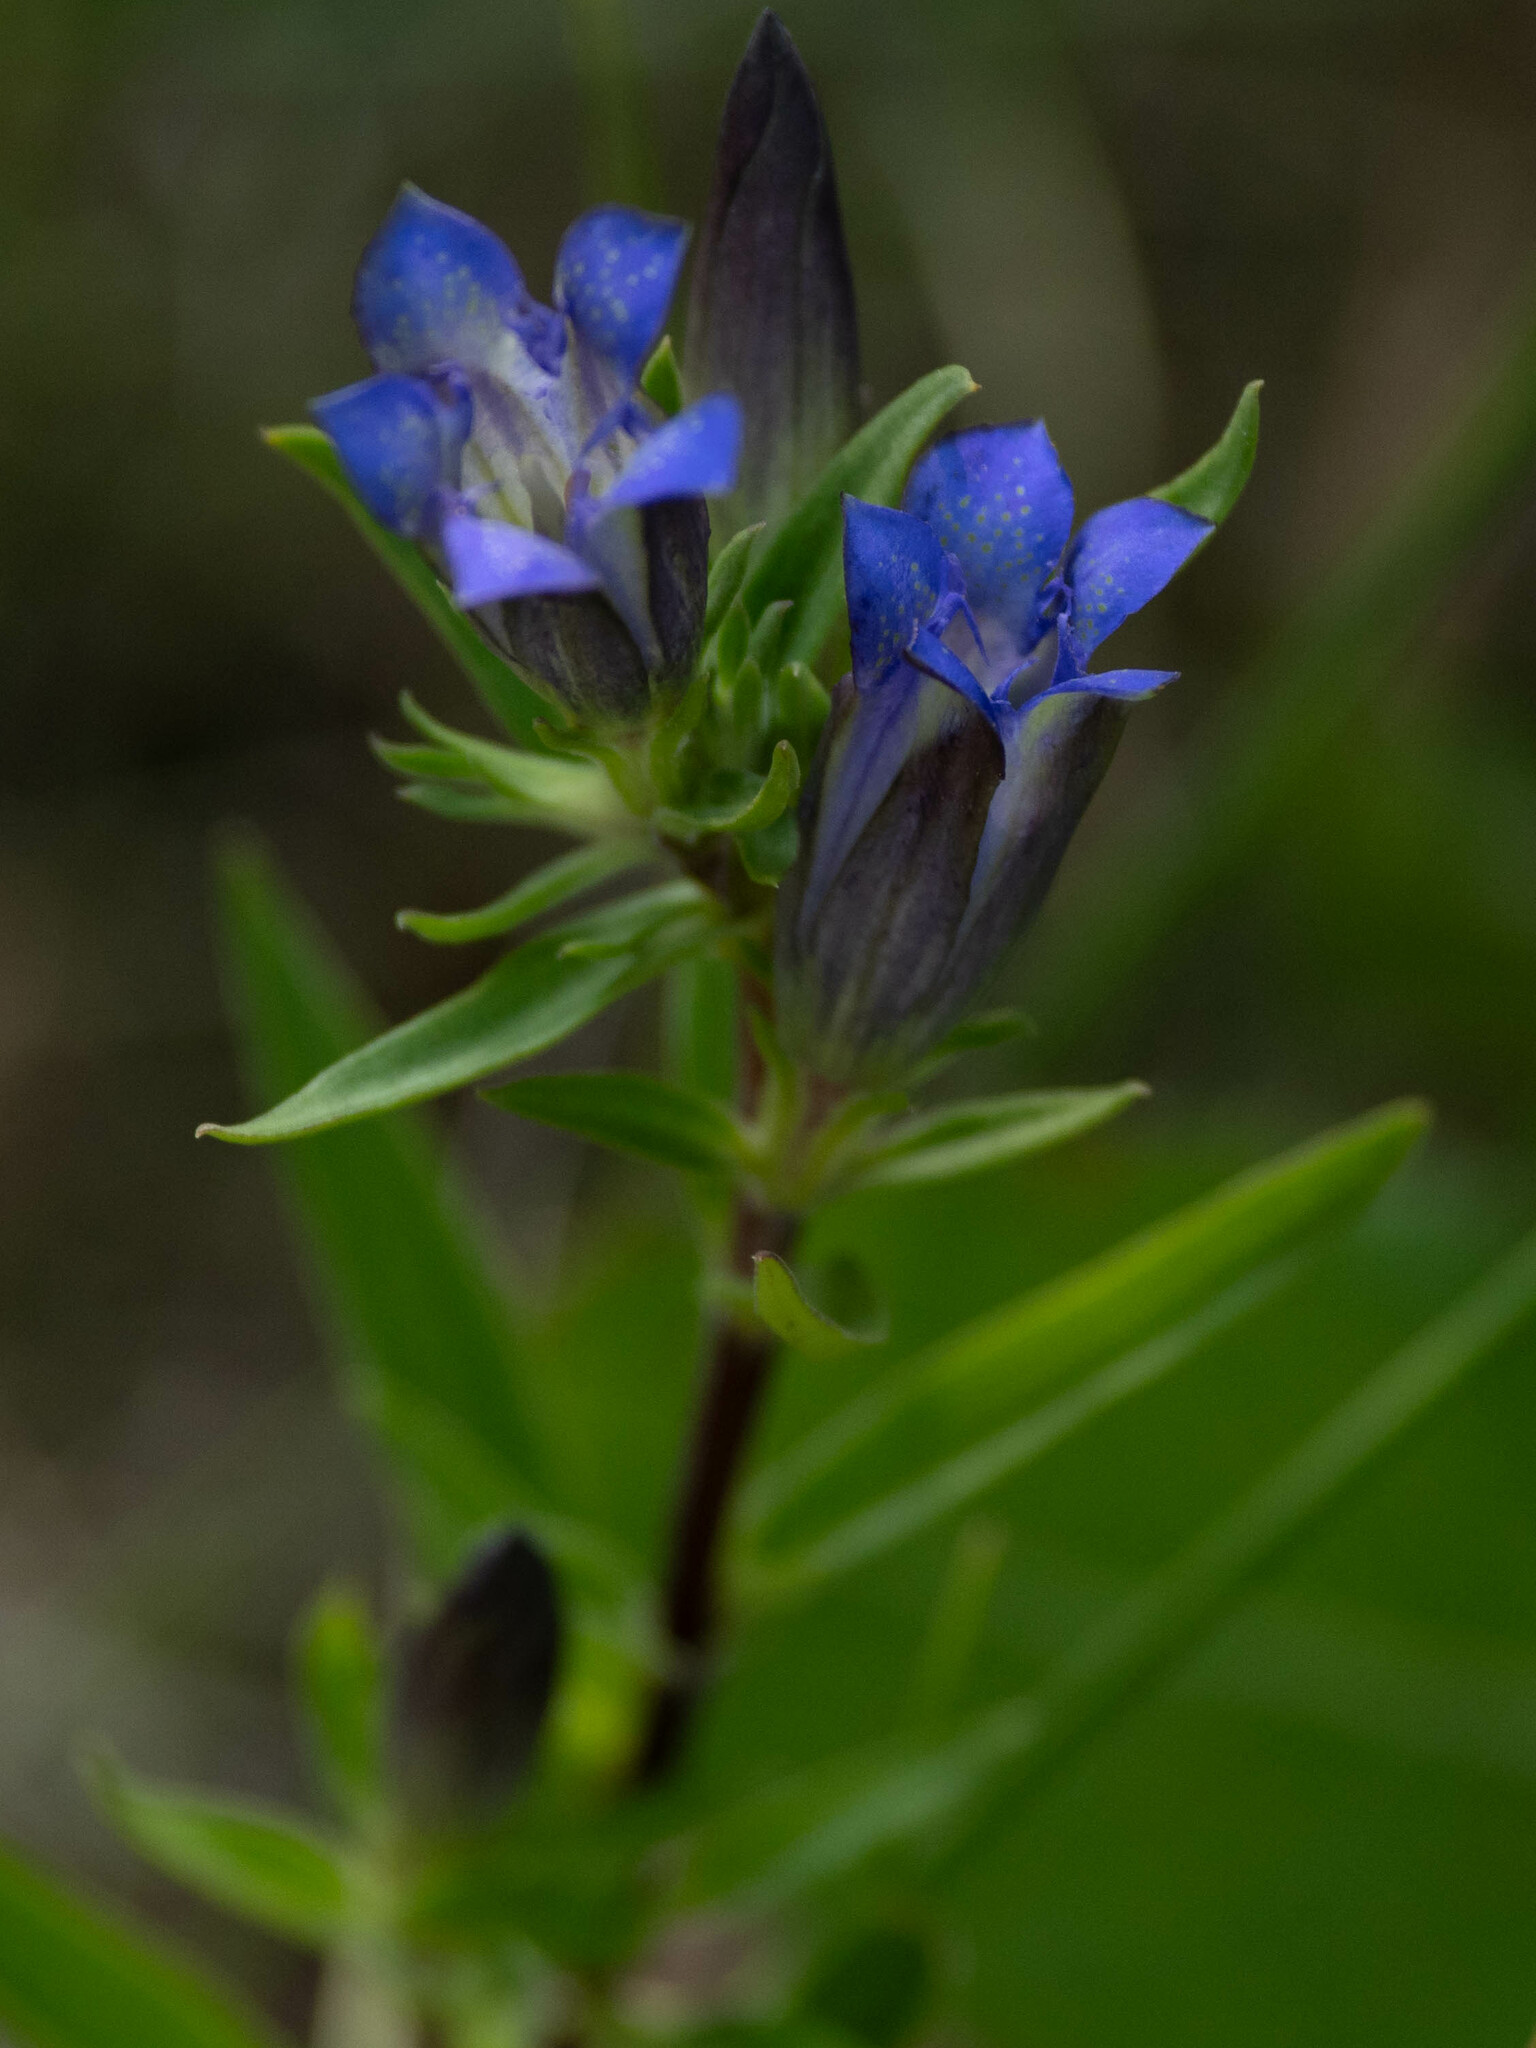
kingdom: Plantae
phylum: Tracheophyta
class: Magnoliopsida
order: Gentianales
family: Gentianaceae
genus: Gentiana
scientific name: Gentiana affinis
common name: Rocky mountain gentian
